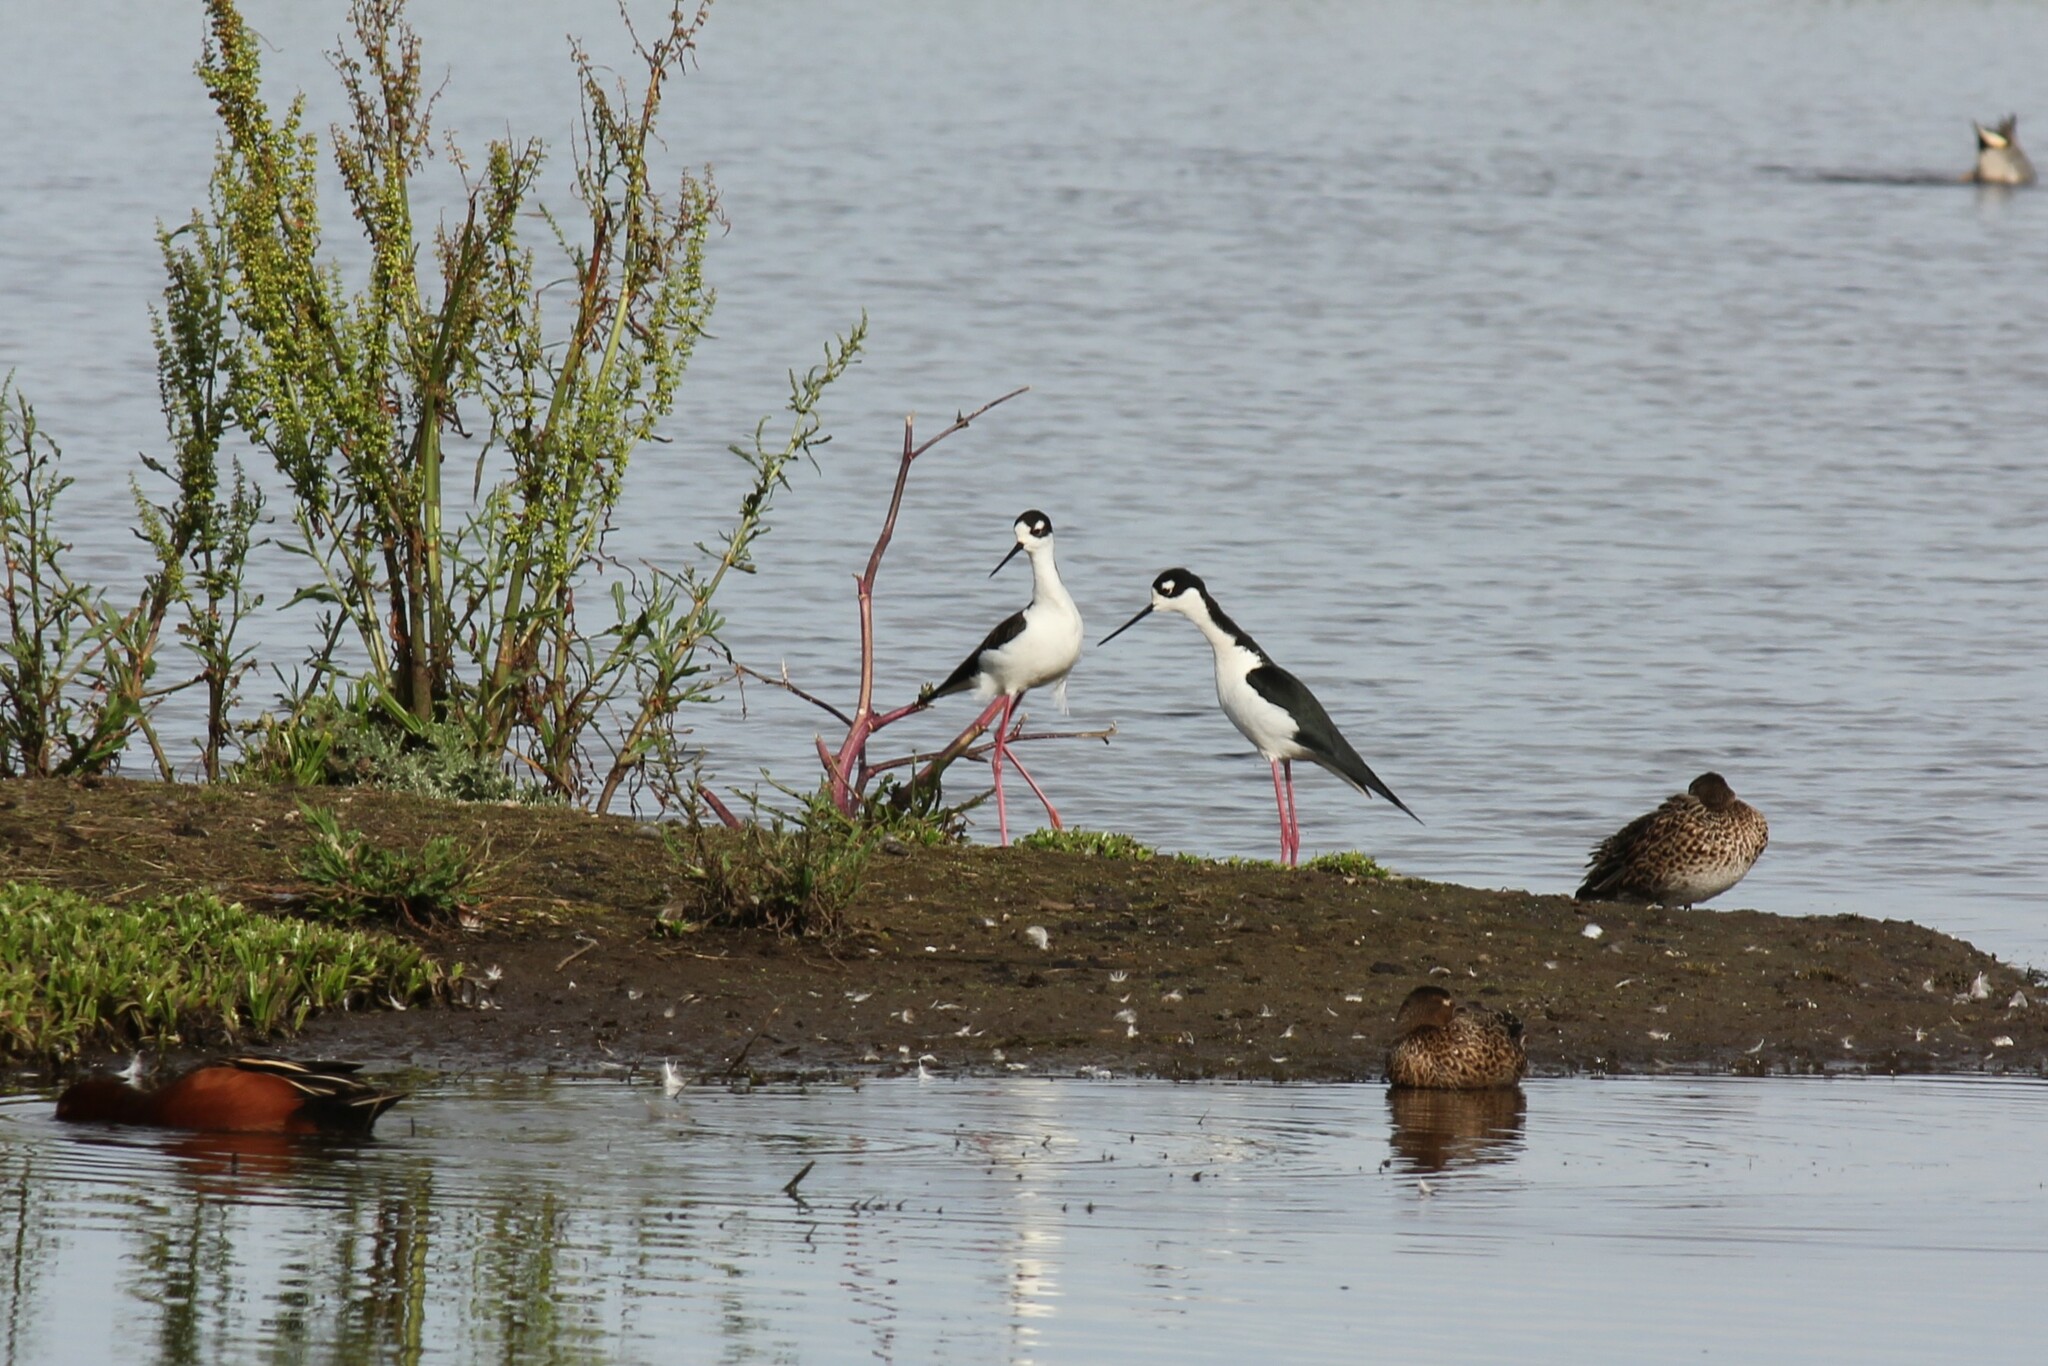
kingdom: Animalia
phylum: Chordata
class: Aves
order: Charadriiformes
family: Recurvirostridae
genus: Himantopus
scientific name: Himantopus mexicanus
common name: Black-necked stilt
